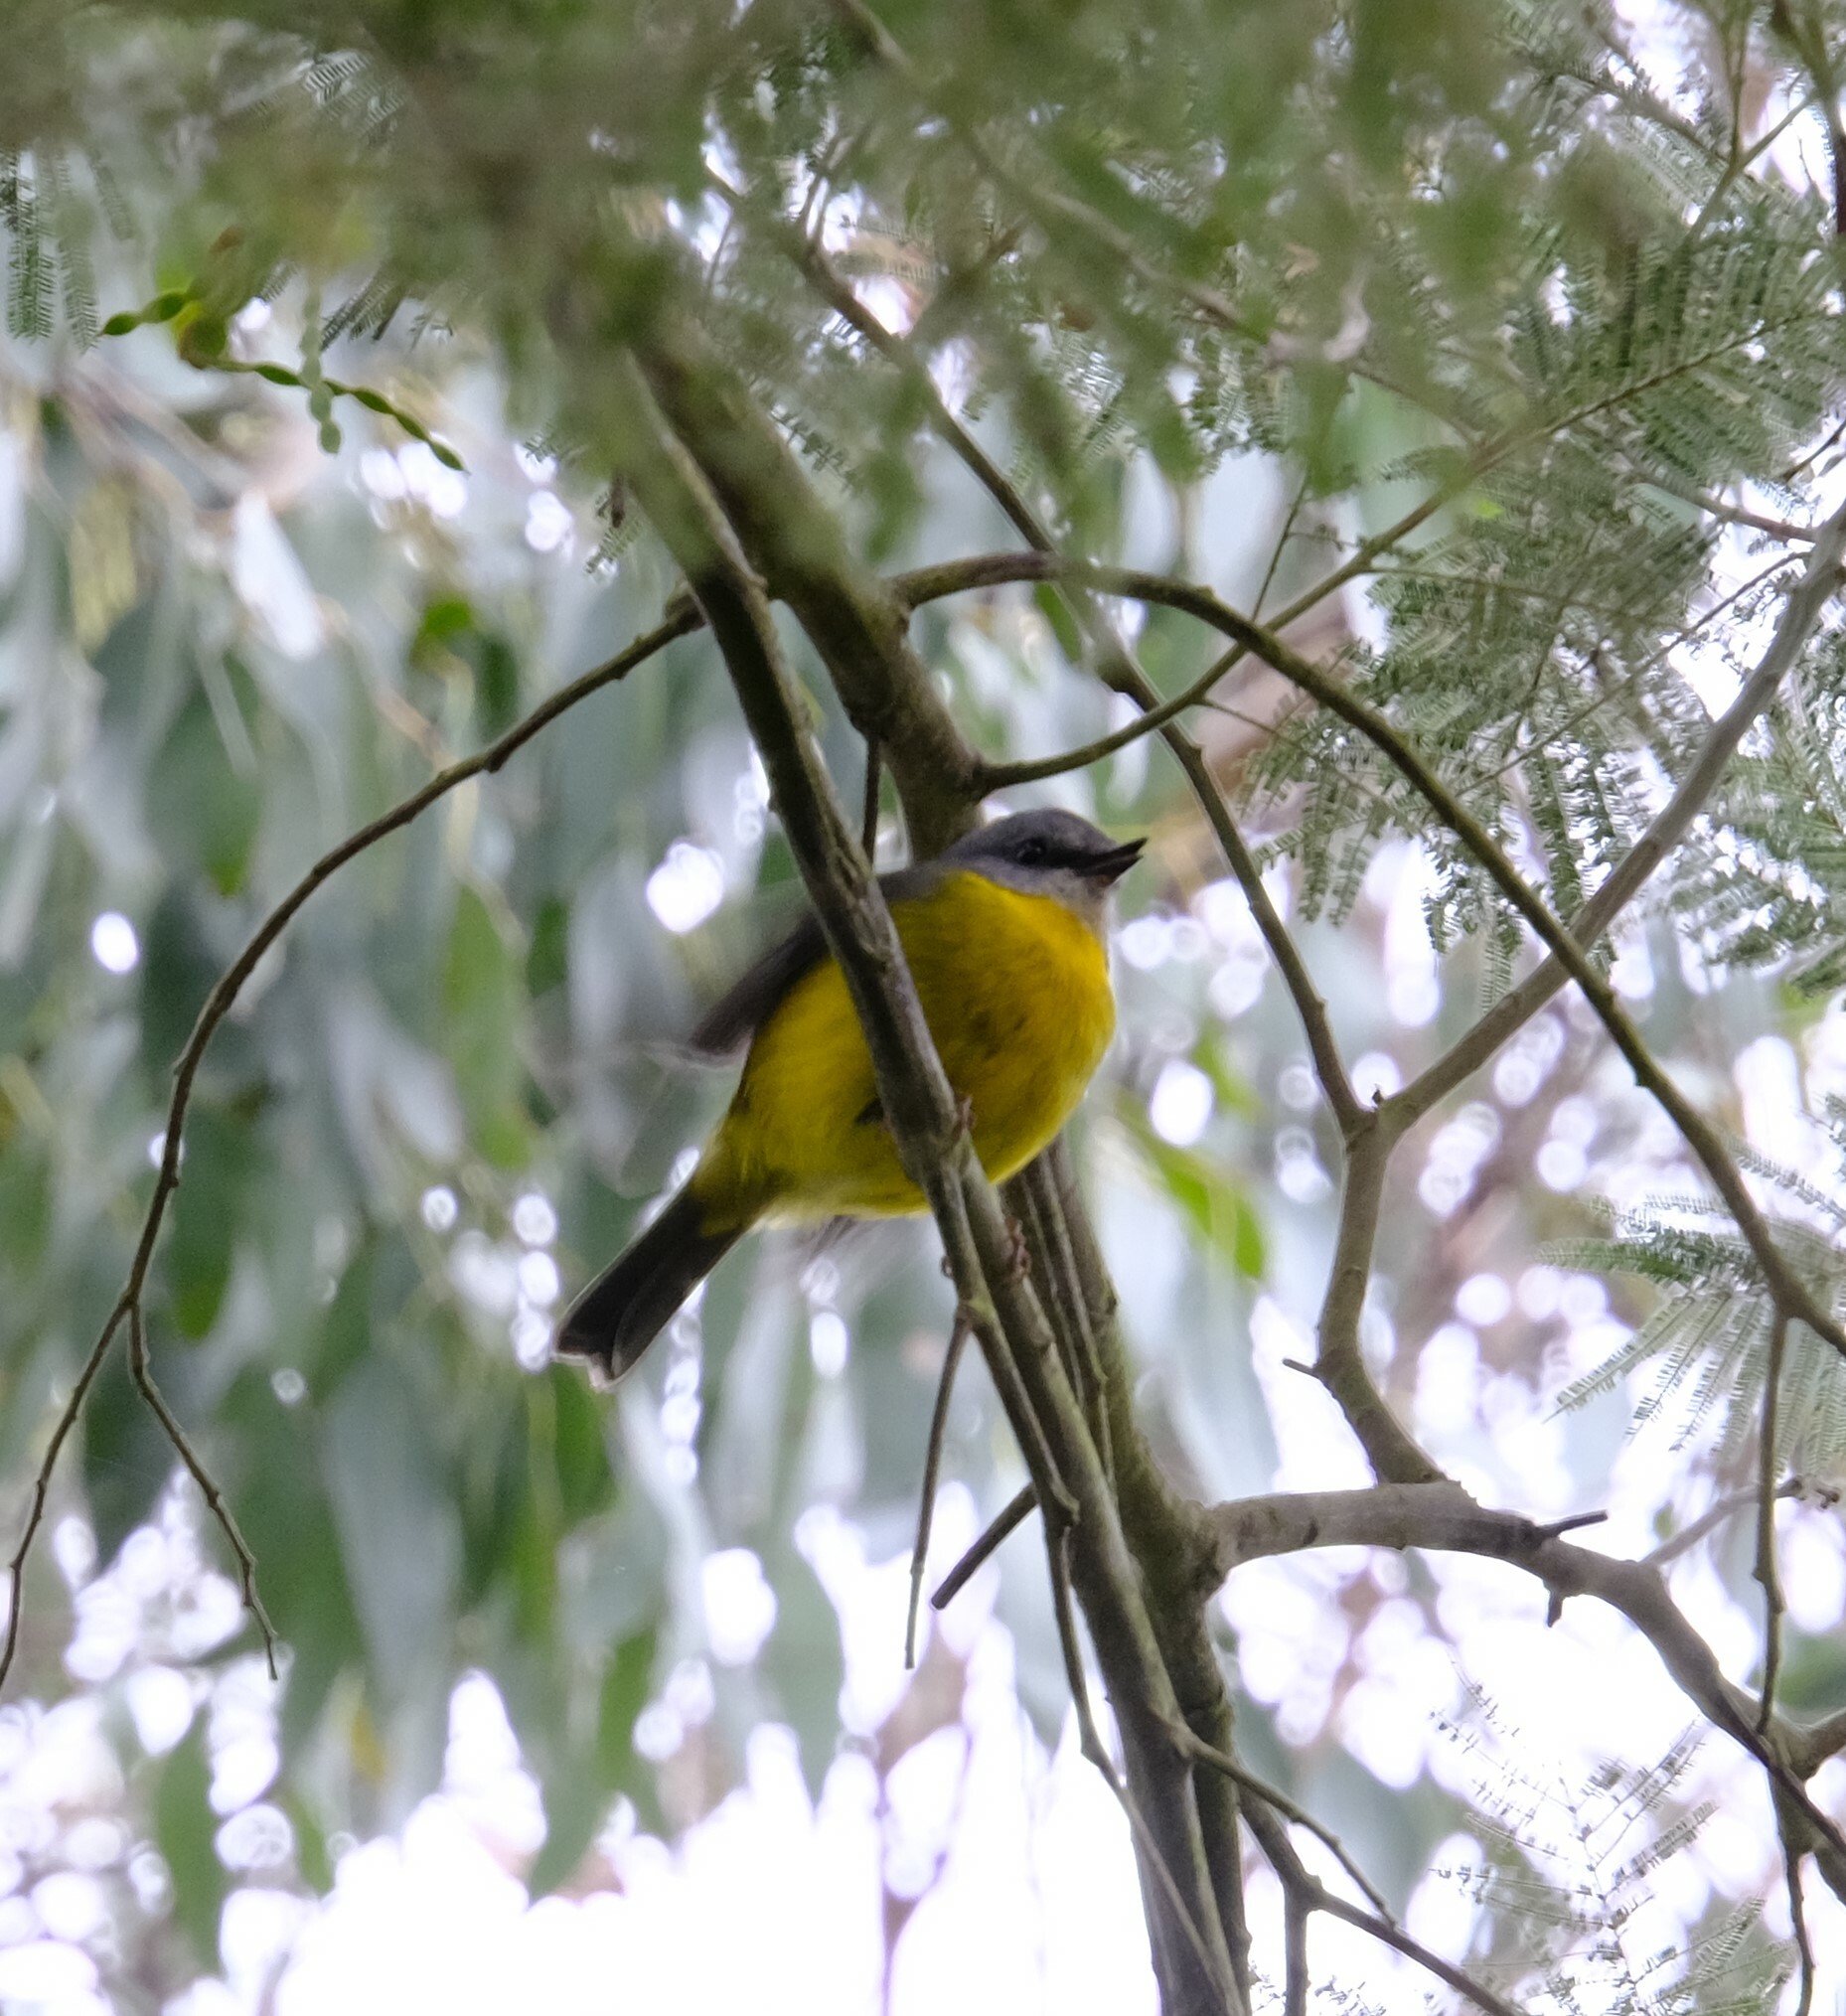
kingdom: Animalia
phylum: Chordata
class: Aves
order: Passeriformes
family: Petroicidae
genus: Eopsaltria
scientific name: Eopsaltria australis
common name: Eastern yellow robin
